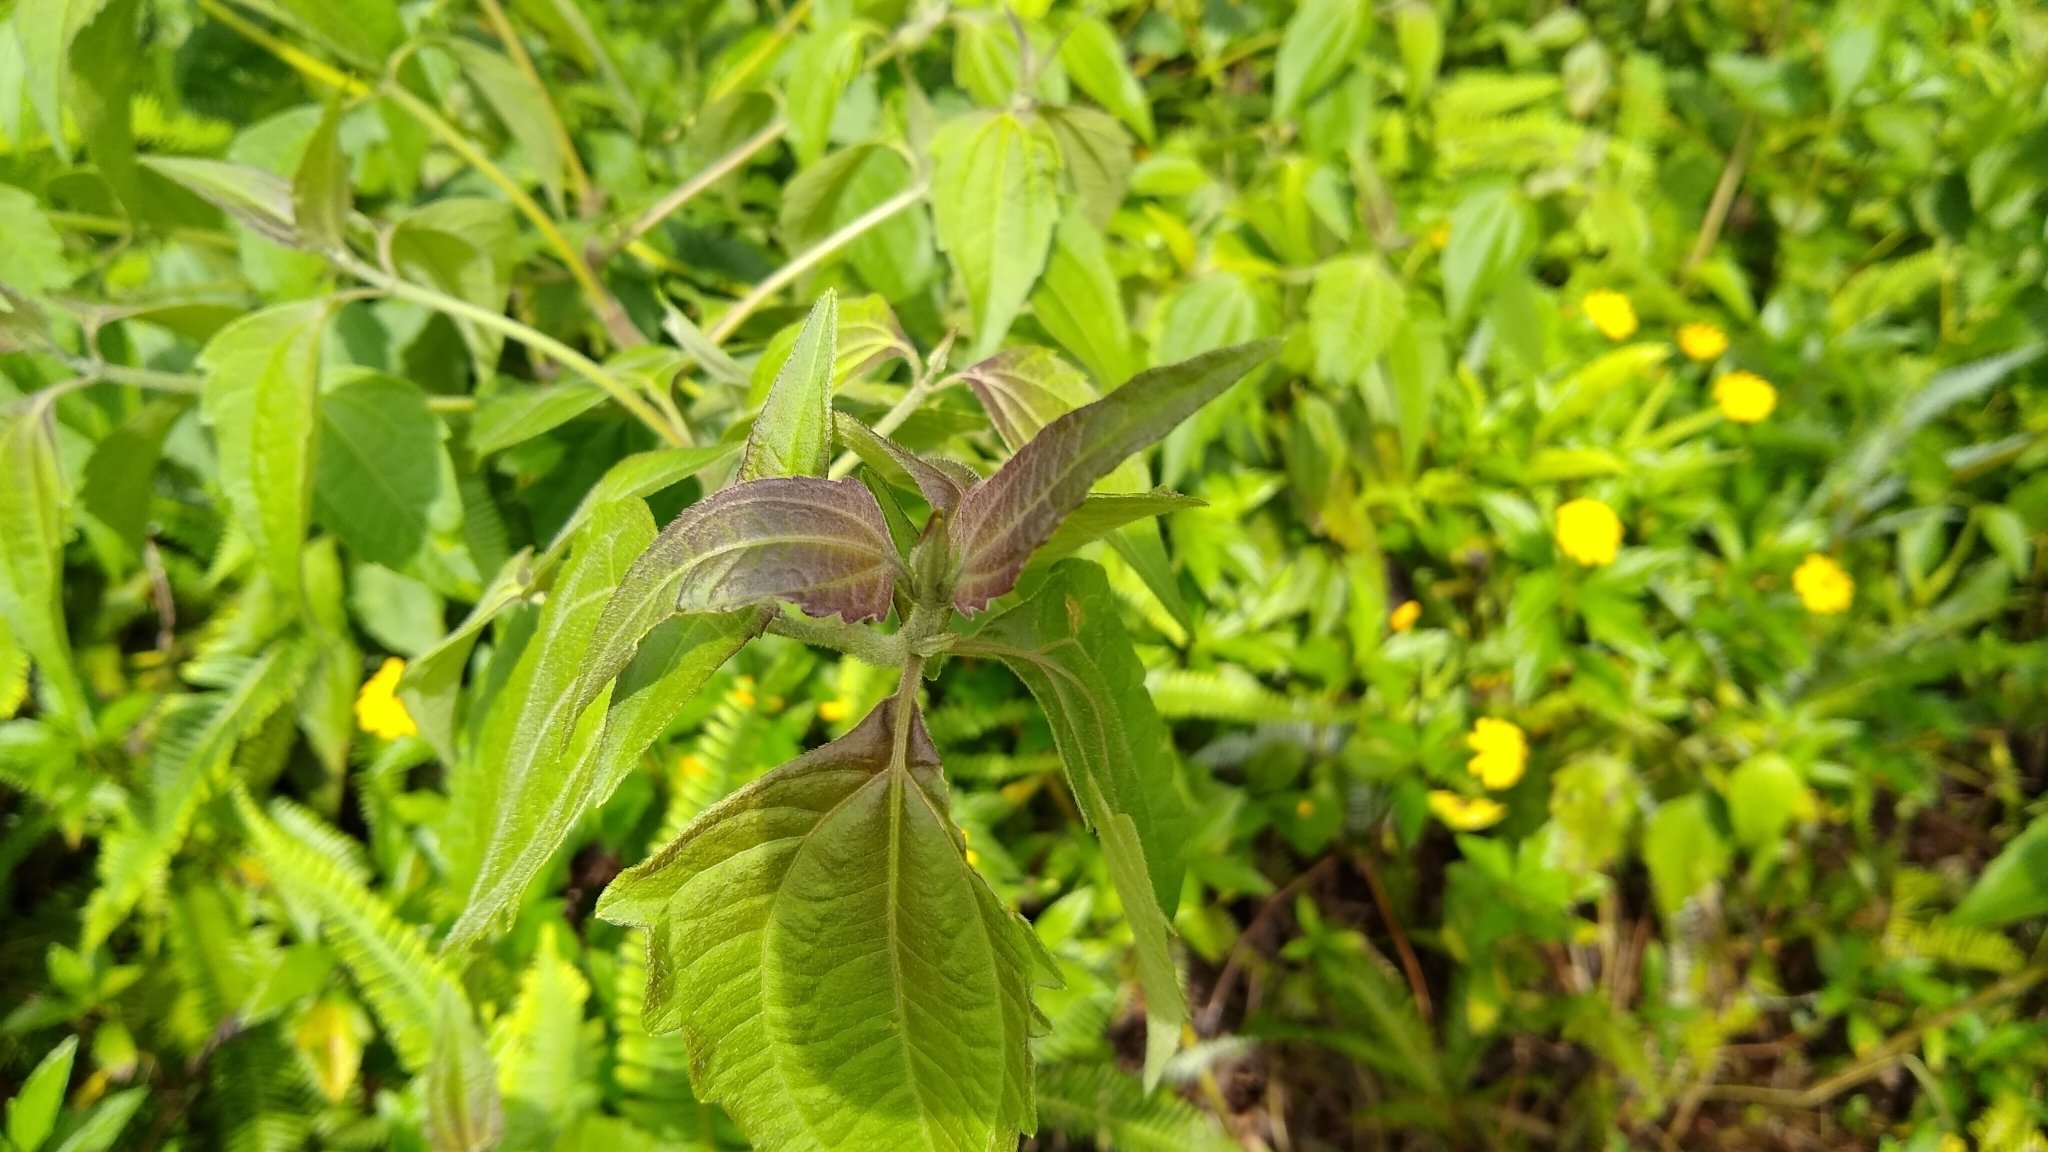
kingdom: Plantae
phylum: Tracheophyta
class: Magnoliopsida
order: Asterales
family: Asteraceae
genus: Chromolaena
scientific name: Chromolaena odorata
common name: Siamweed
